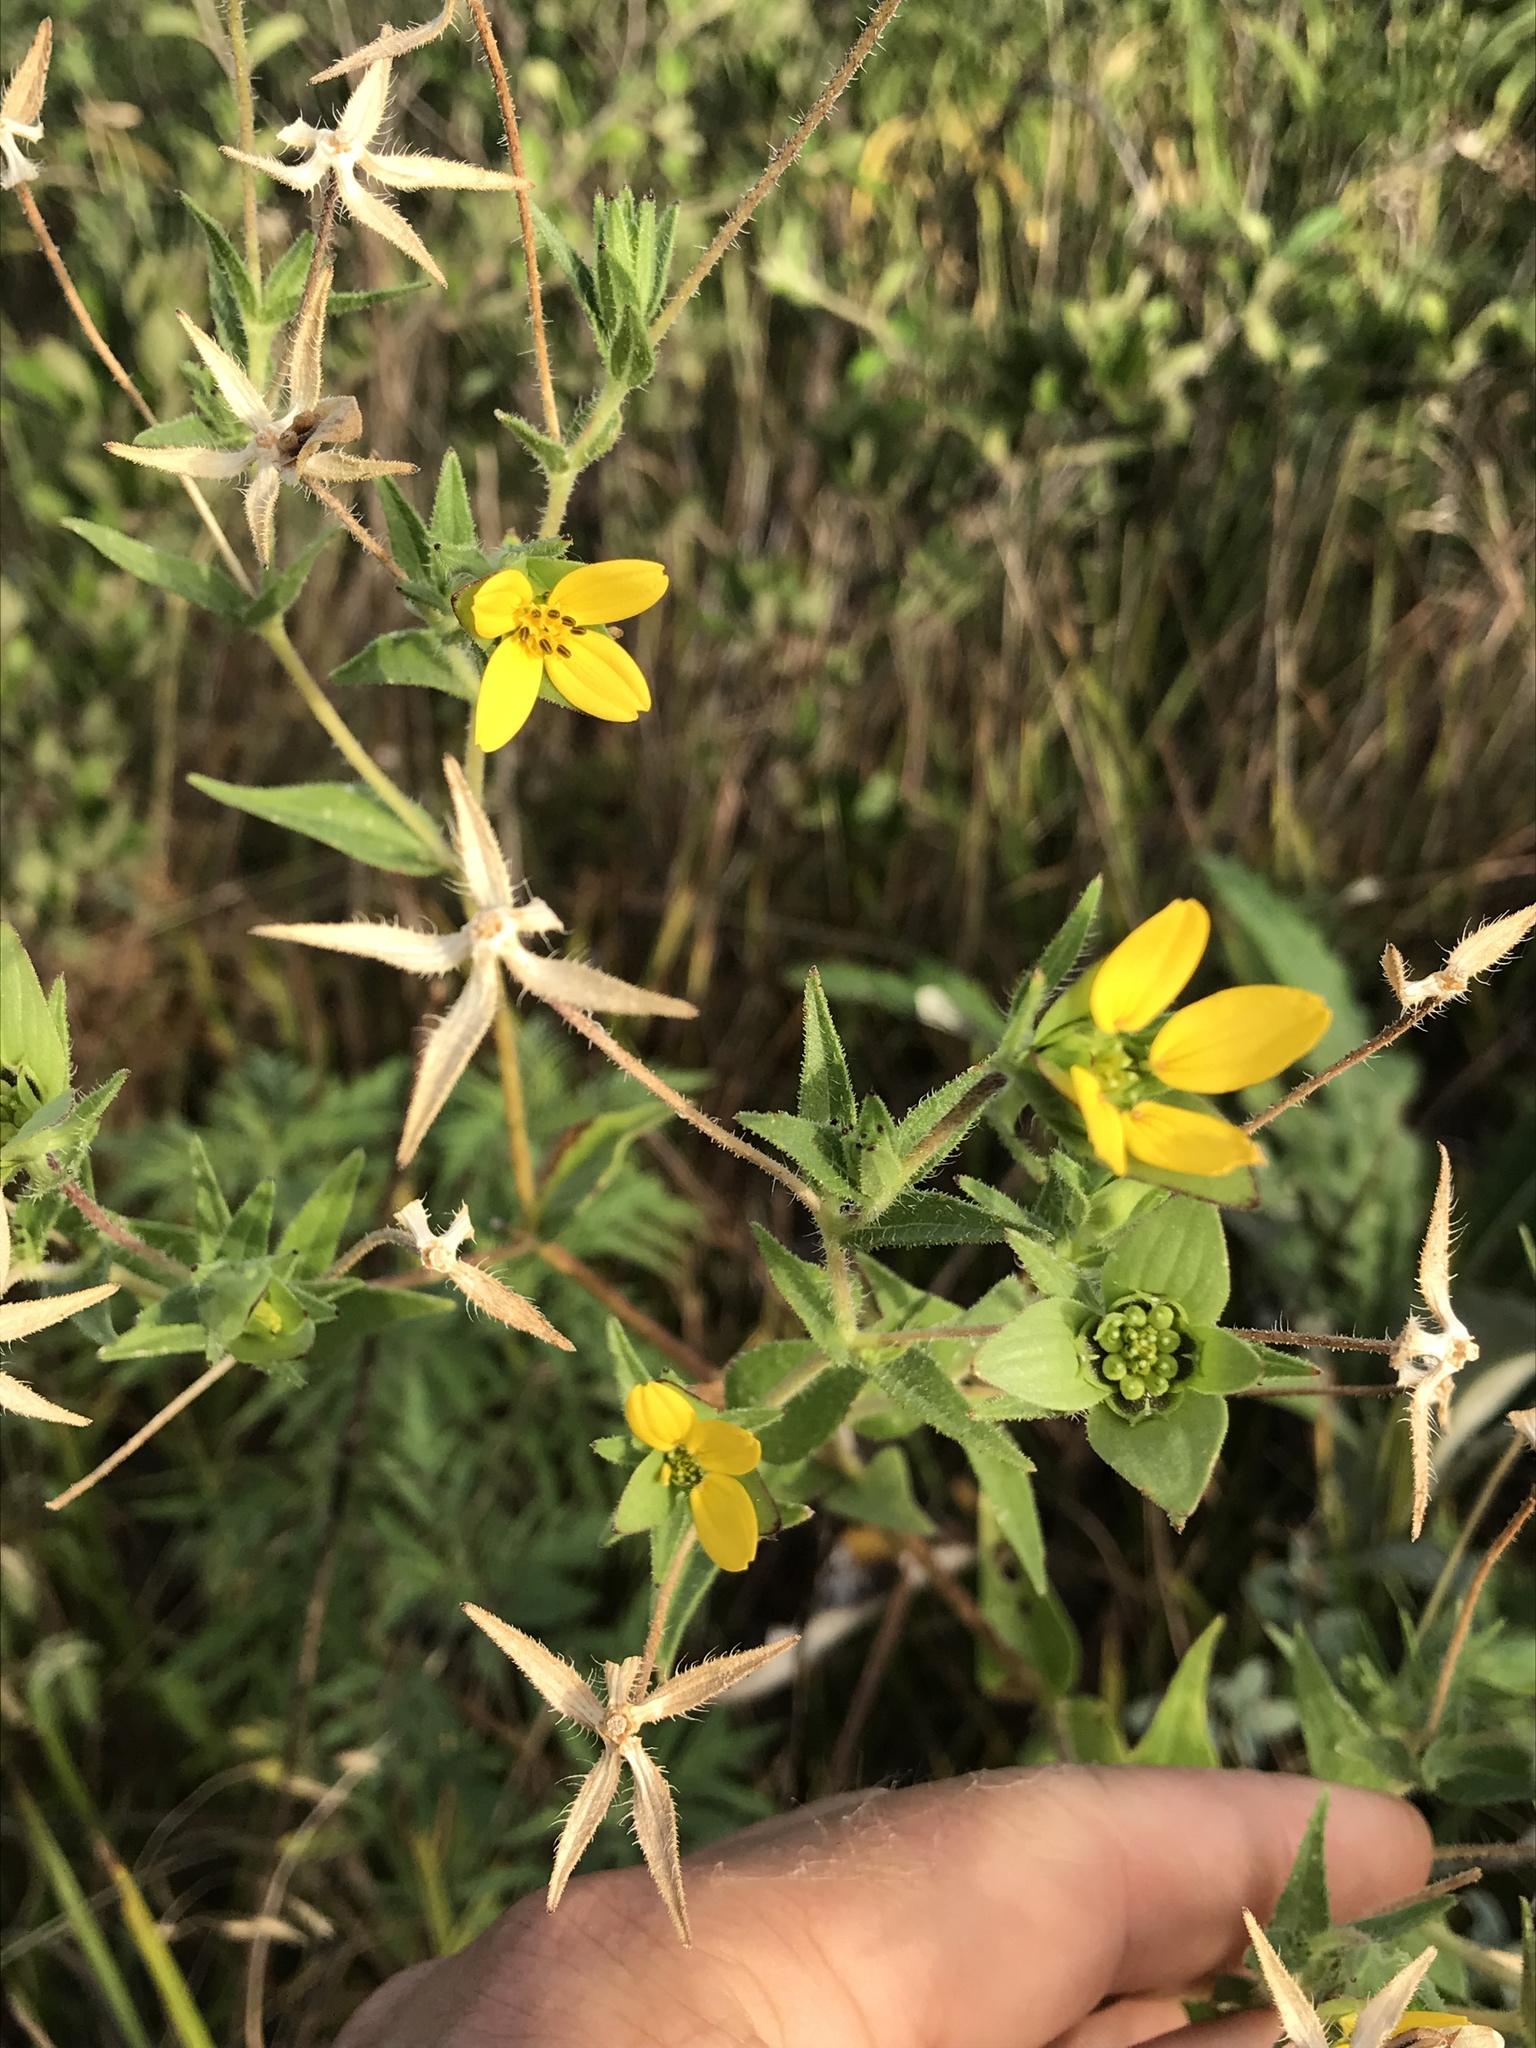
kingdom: Plantae
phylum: Tracheophyta
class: Magnoliopsida
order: Asterales
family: Asteraceae
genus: Lindheimera
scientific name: Lindheimera texana
